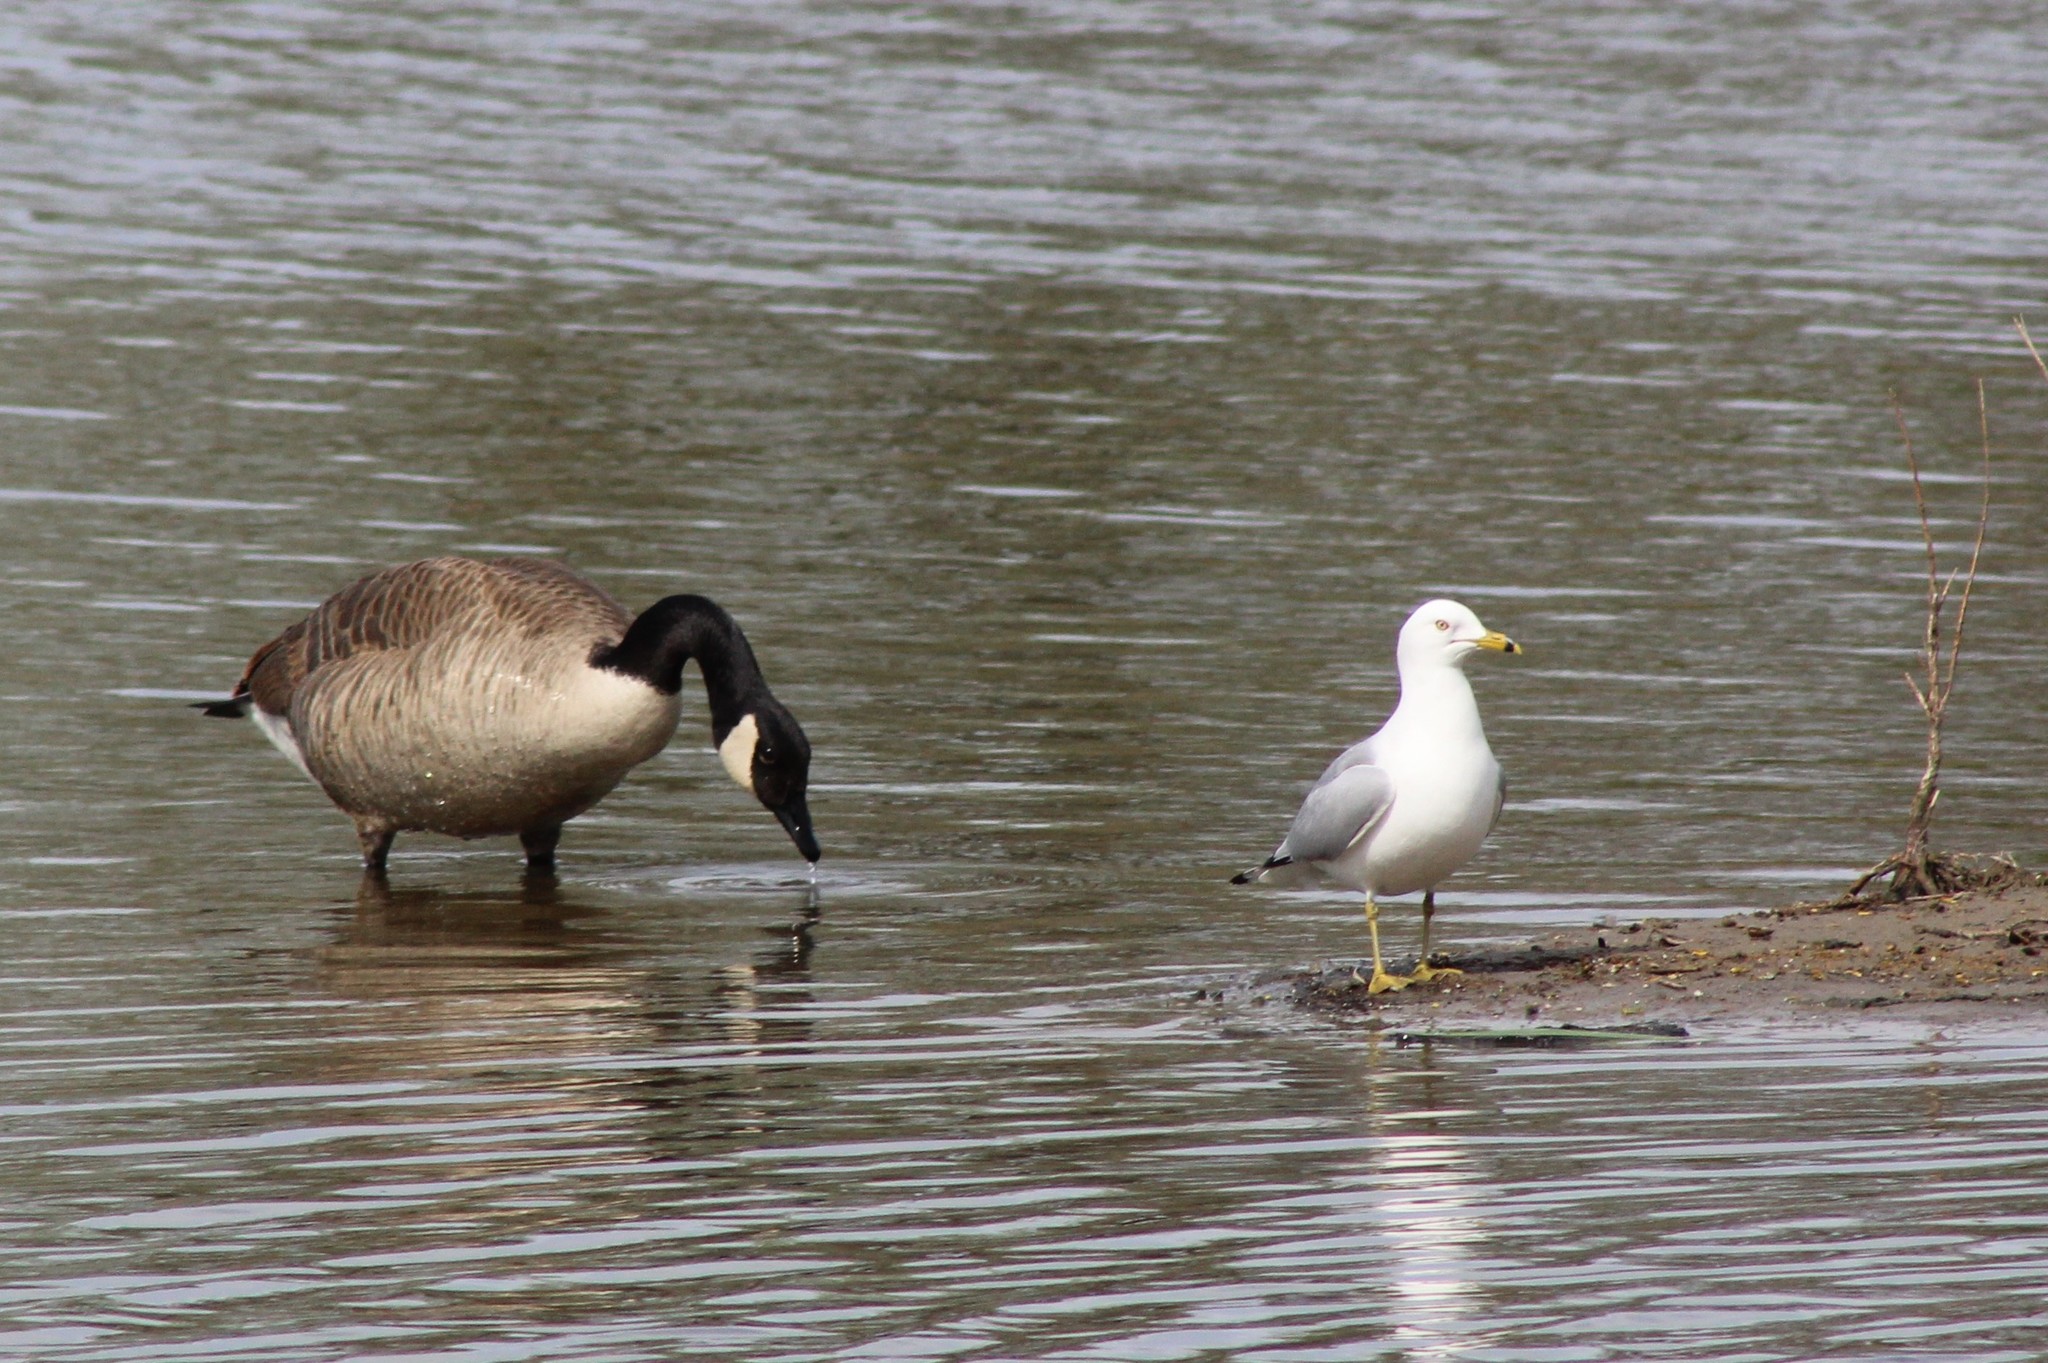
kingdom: Animalia
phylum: Chordata
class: Aves
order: Anseriformes
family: Anatidae
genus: Branta
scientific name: Branta canadensis
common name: Canada goose
